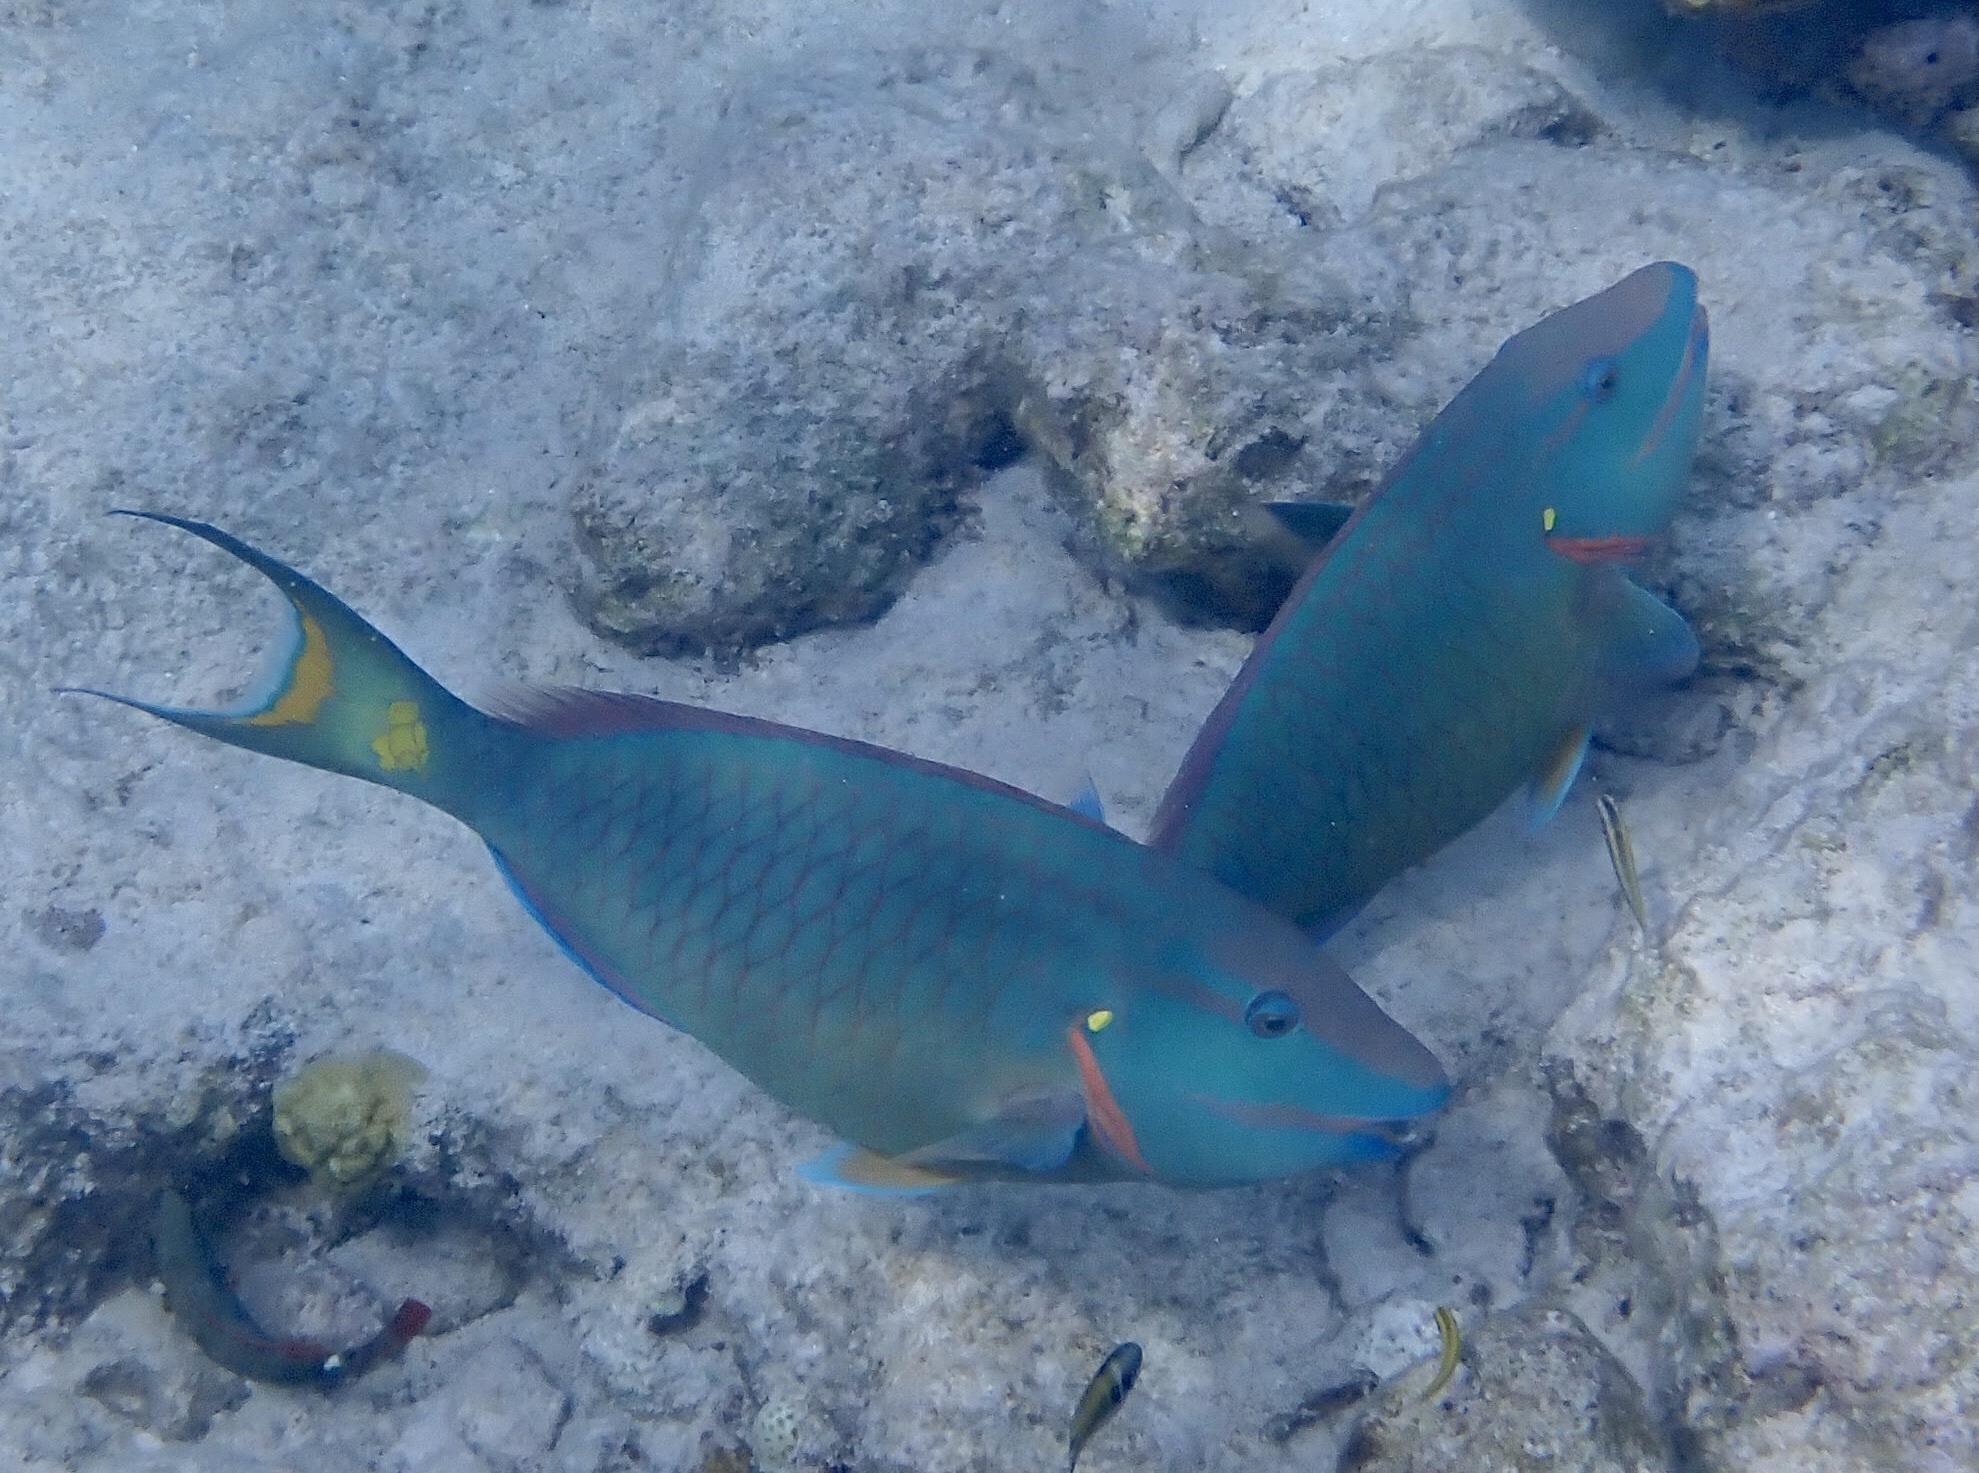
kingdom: Animalia
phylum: Chordata
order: Perciformes
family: Scaridae
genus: Sparisoma
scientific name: Sparisoma viride
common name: Stoplight parrotfish
